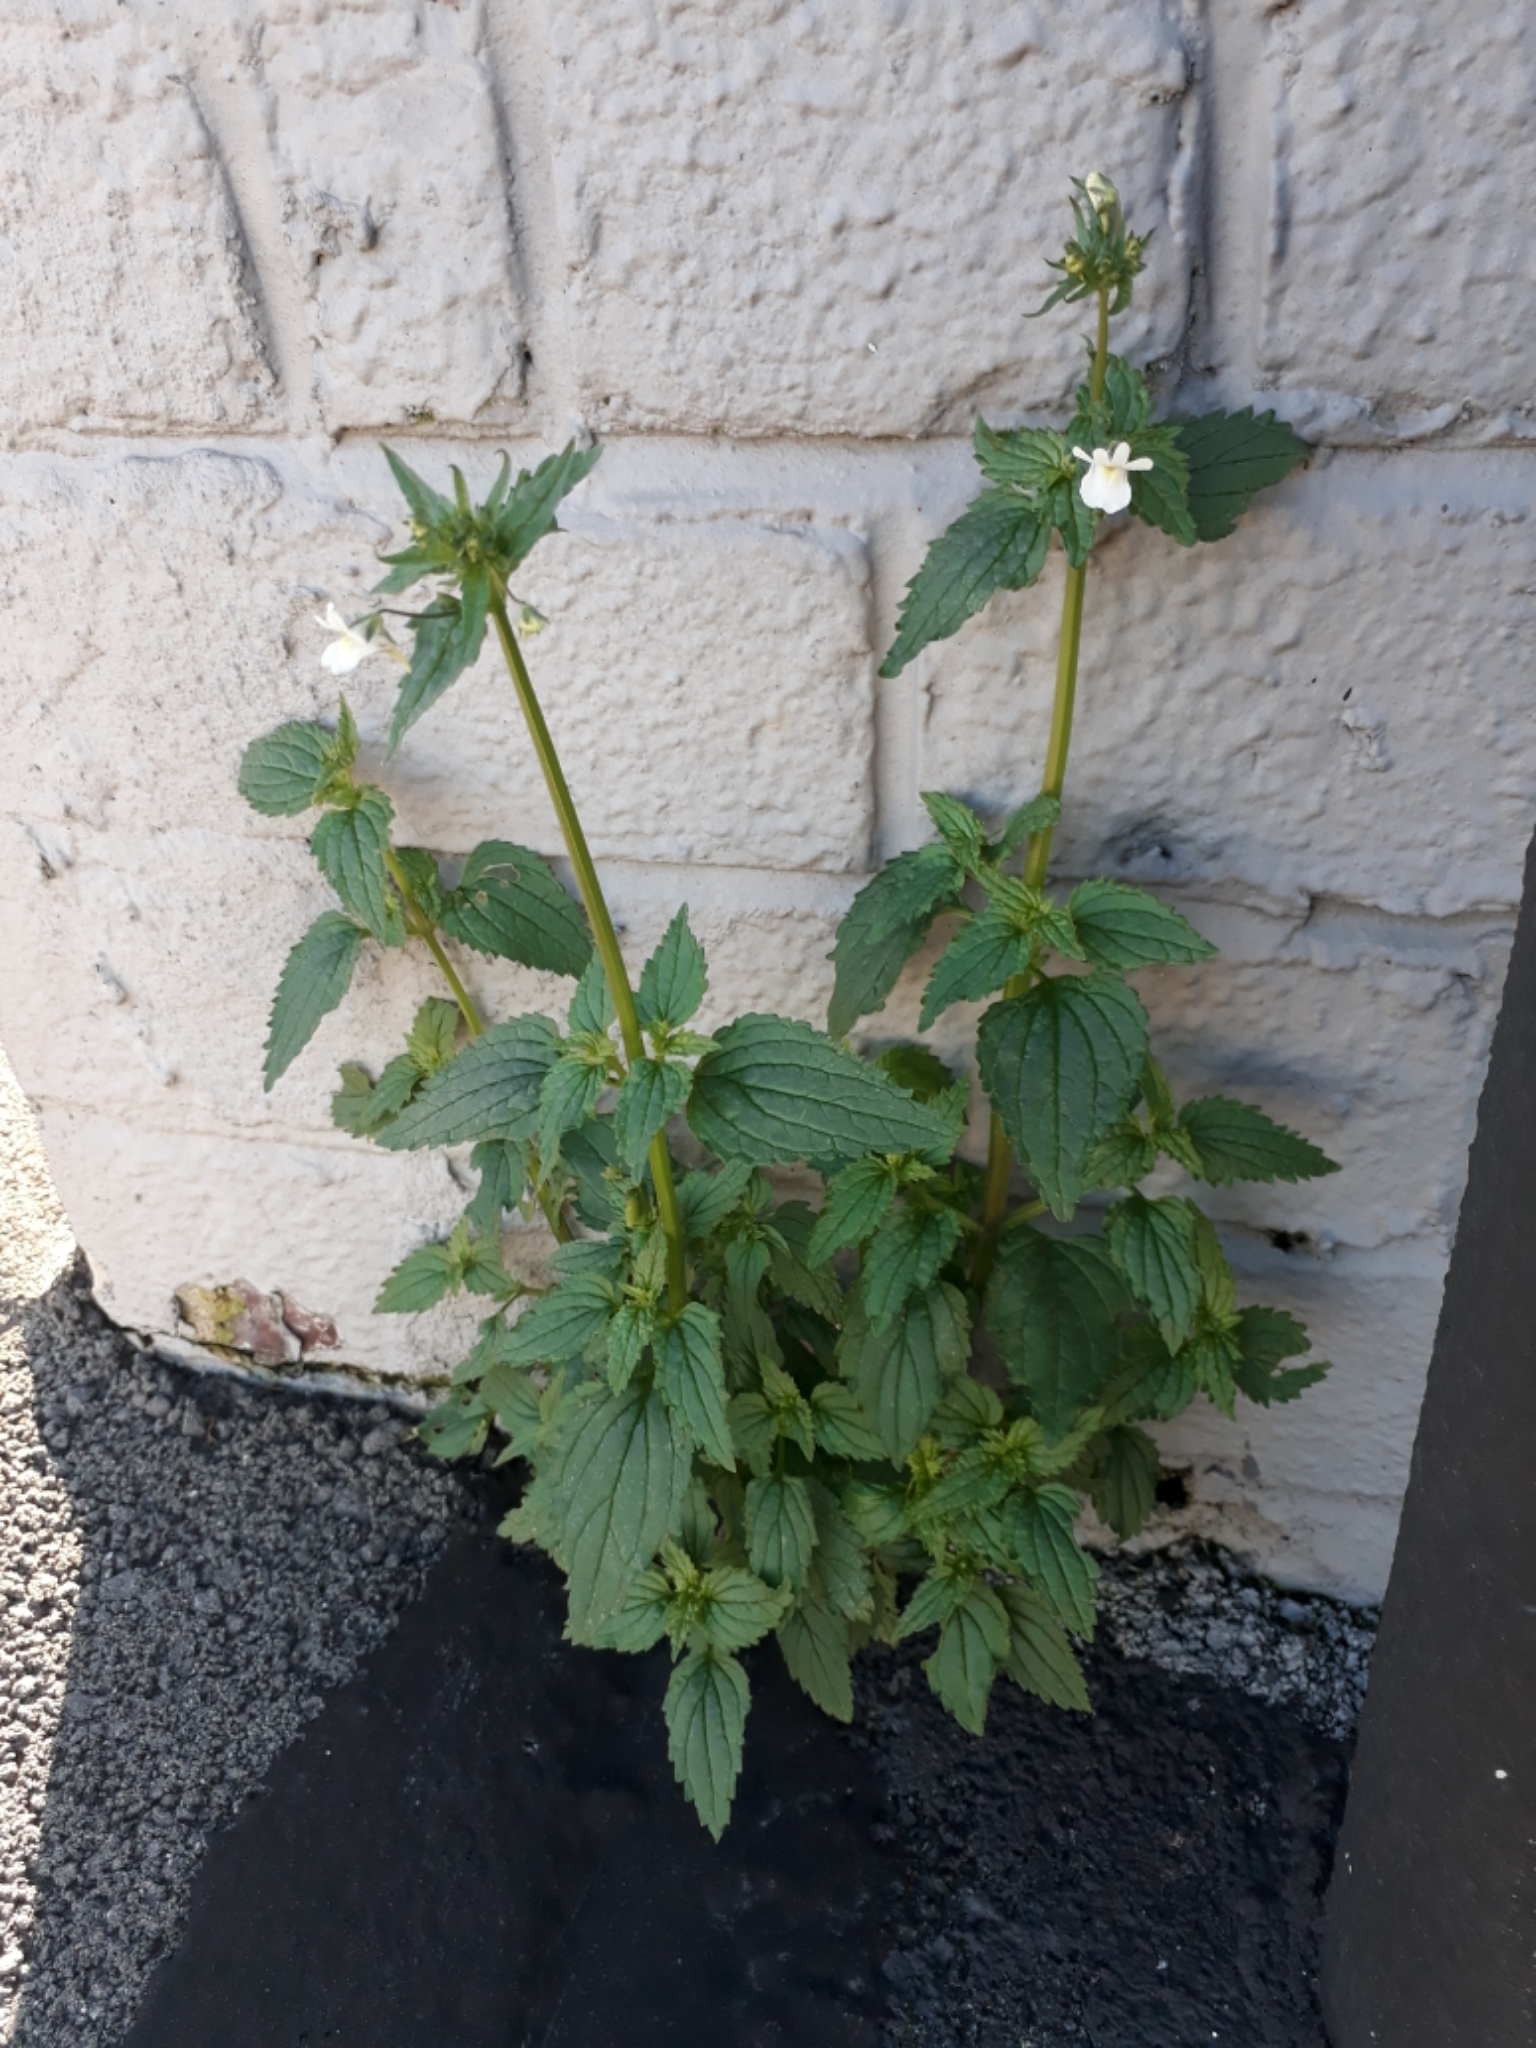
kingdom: Plantae
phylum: Tracheophyta
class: Magnoliopsida
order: Lamiales
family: Scrophulariaceae
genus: Nemesia
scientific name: Nemesia floribunda
